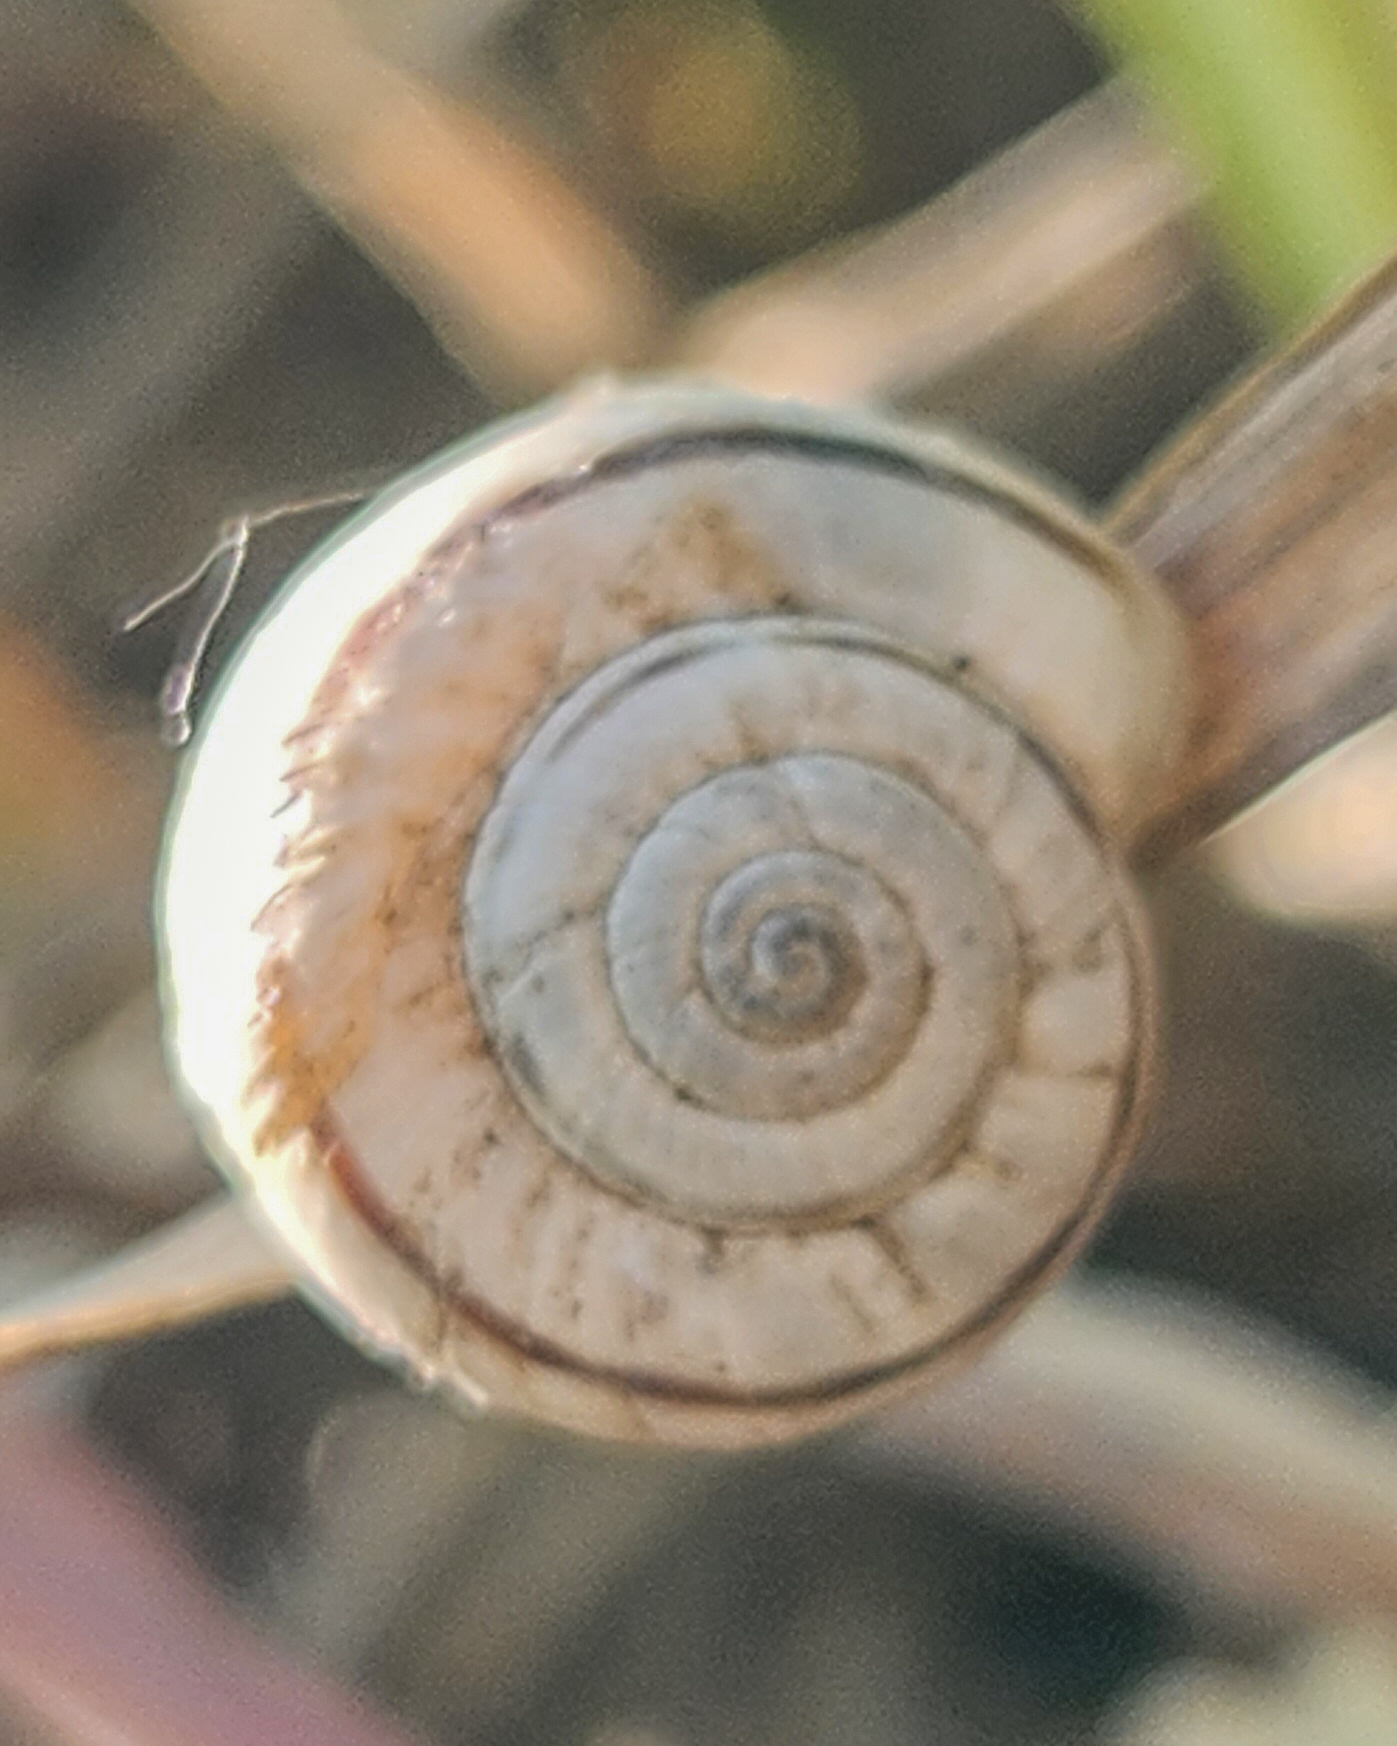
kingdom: Animalia
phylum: Mollusca
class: Gastropoda
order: Stylommatophora
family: Geomitridae
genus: Xerolenta
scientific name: Xerolenta obvia
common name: White heath snail
